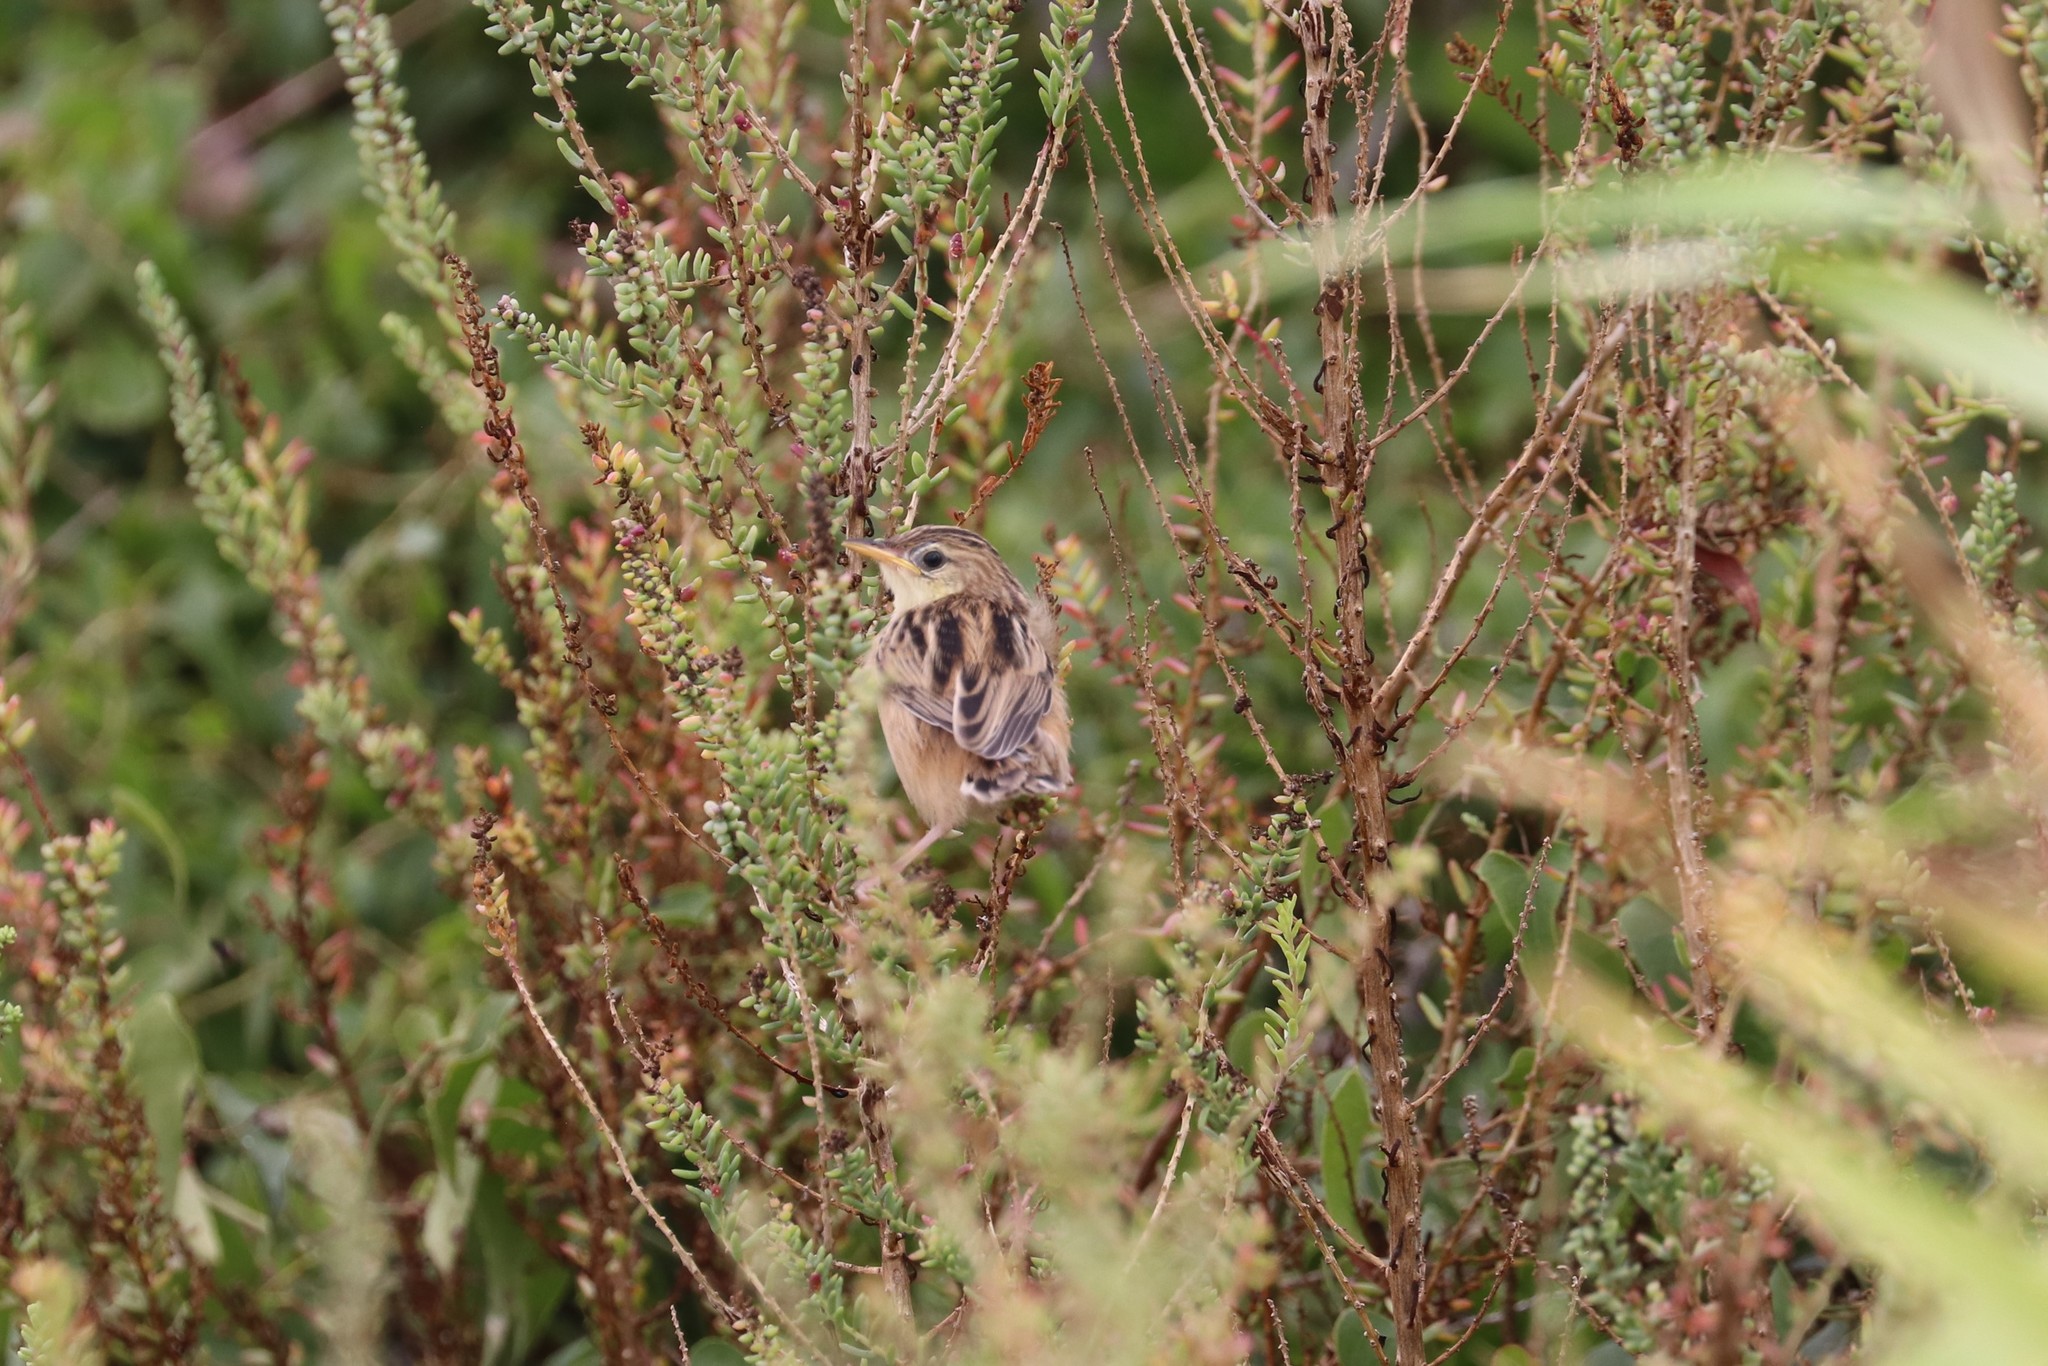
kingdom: Animalia
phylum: Chordata
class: Aves
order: Passeriformes
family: Cisticolidae
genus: Cisticola
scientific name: Cisticola juncidis
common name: Zitting cisticola
